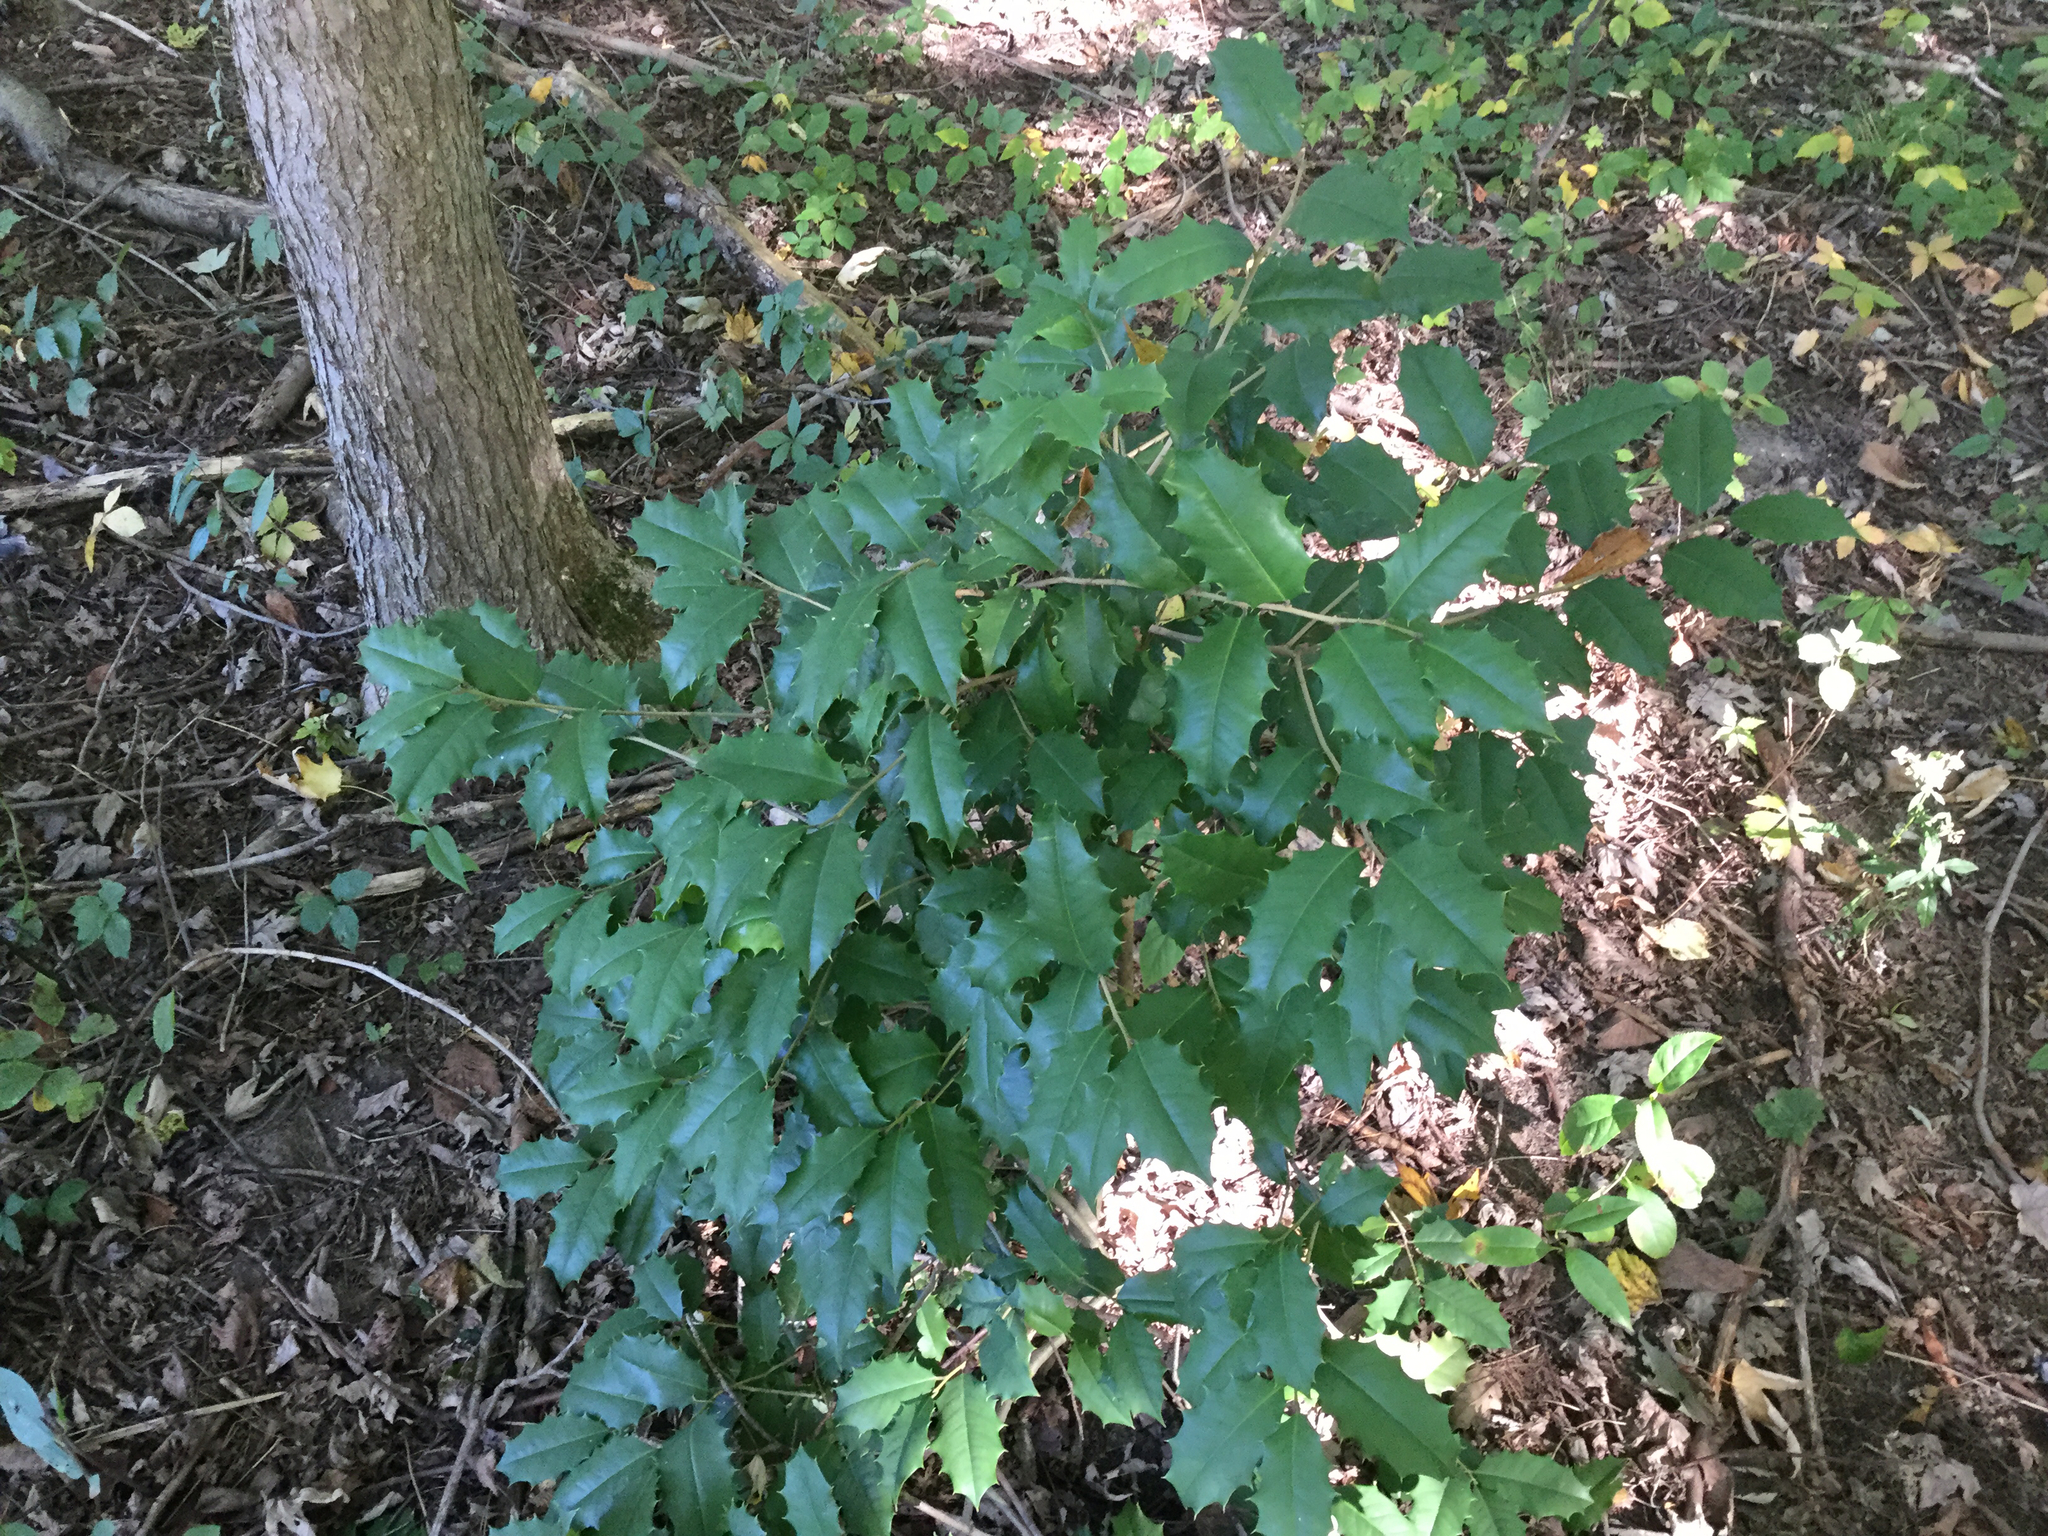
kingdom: Plantae
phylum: Tracheophyta
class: Magnoliopsida
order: Aquifoliales
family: Aquifoliaceae
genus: Ilex
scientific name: Ilex opaca
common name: American holly
